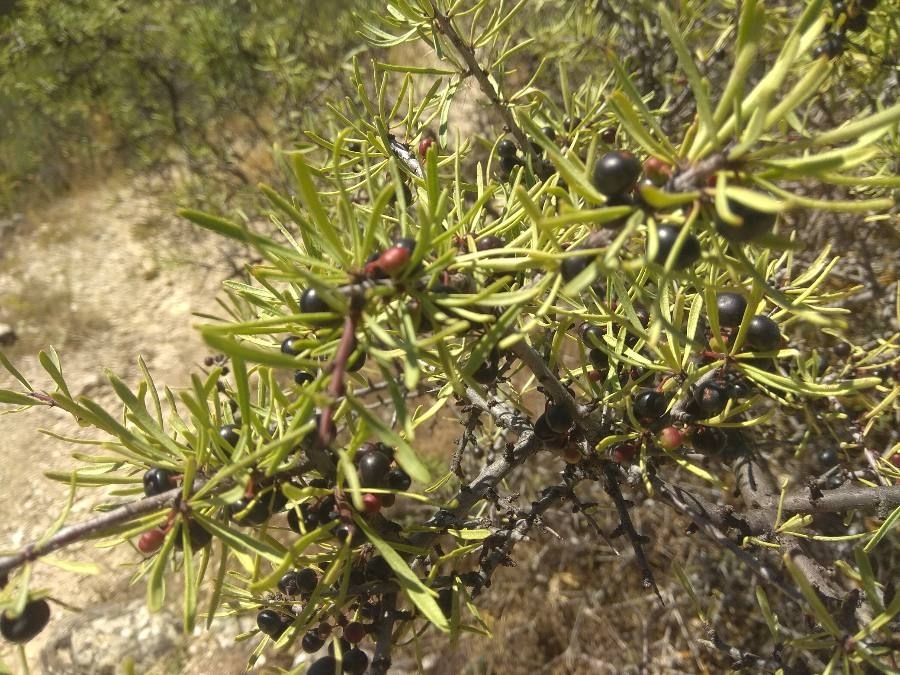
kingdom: Plantae
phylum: Tracheophyta
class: Magnoliopsida
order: Rosales
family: Rhamnaceae
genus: Rhamnus
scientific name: Rhamnus lycioides
